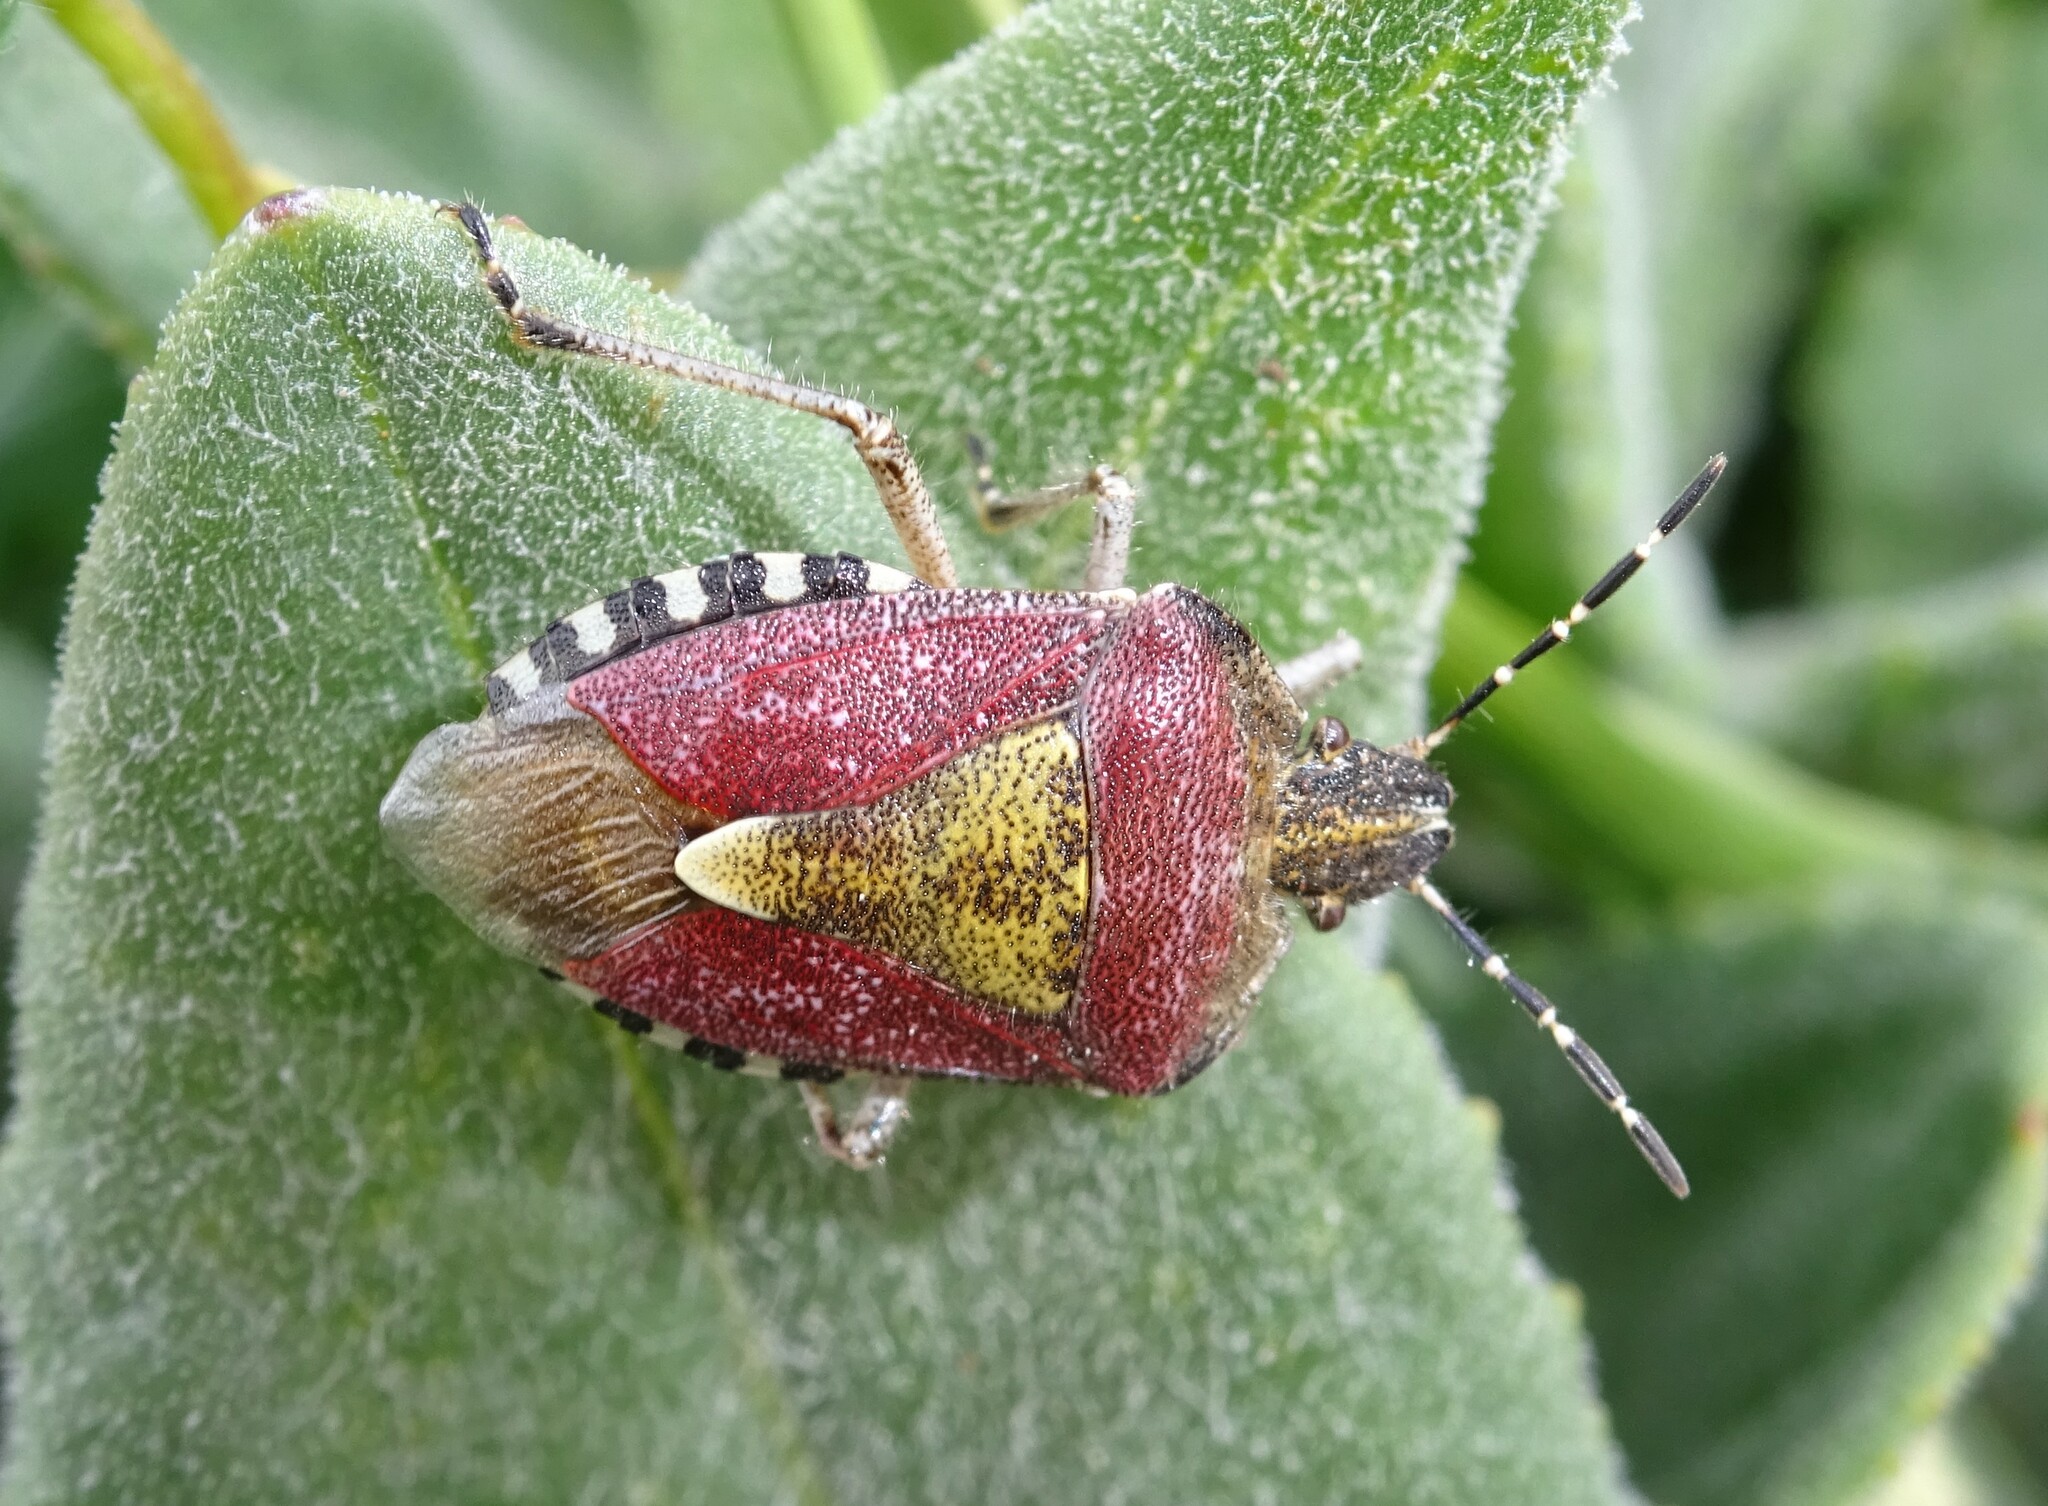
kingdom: Animalia
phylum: Arthropoda
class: Insecta
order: Hemiptera
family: Pentatomidae
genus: Dolycoris
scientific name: Dolycoris baccarum
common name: Sloe bug
